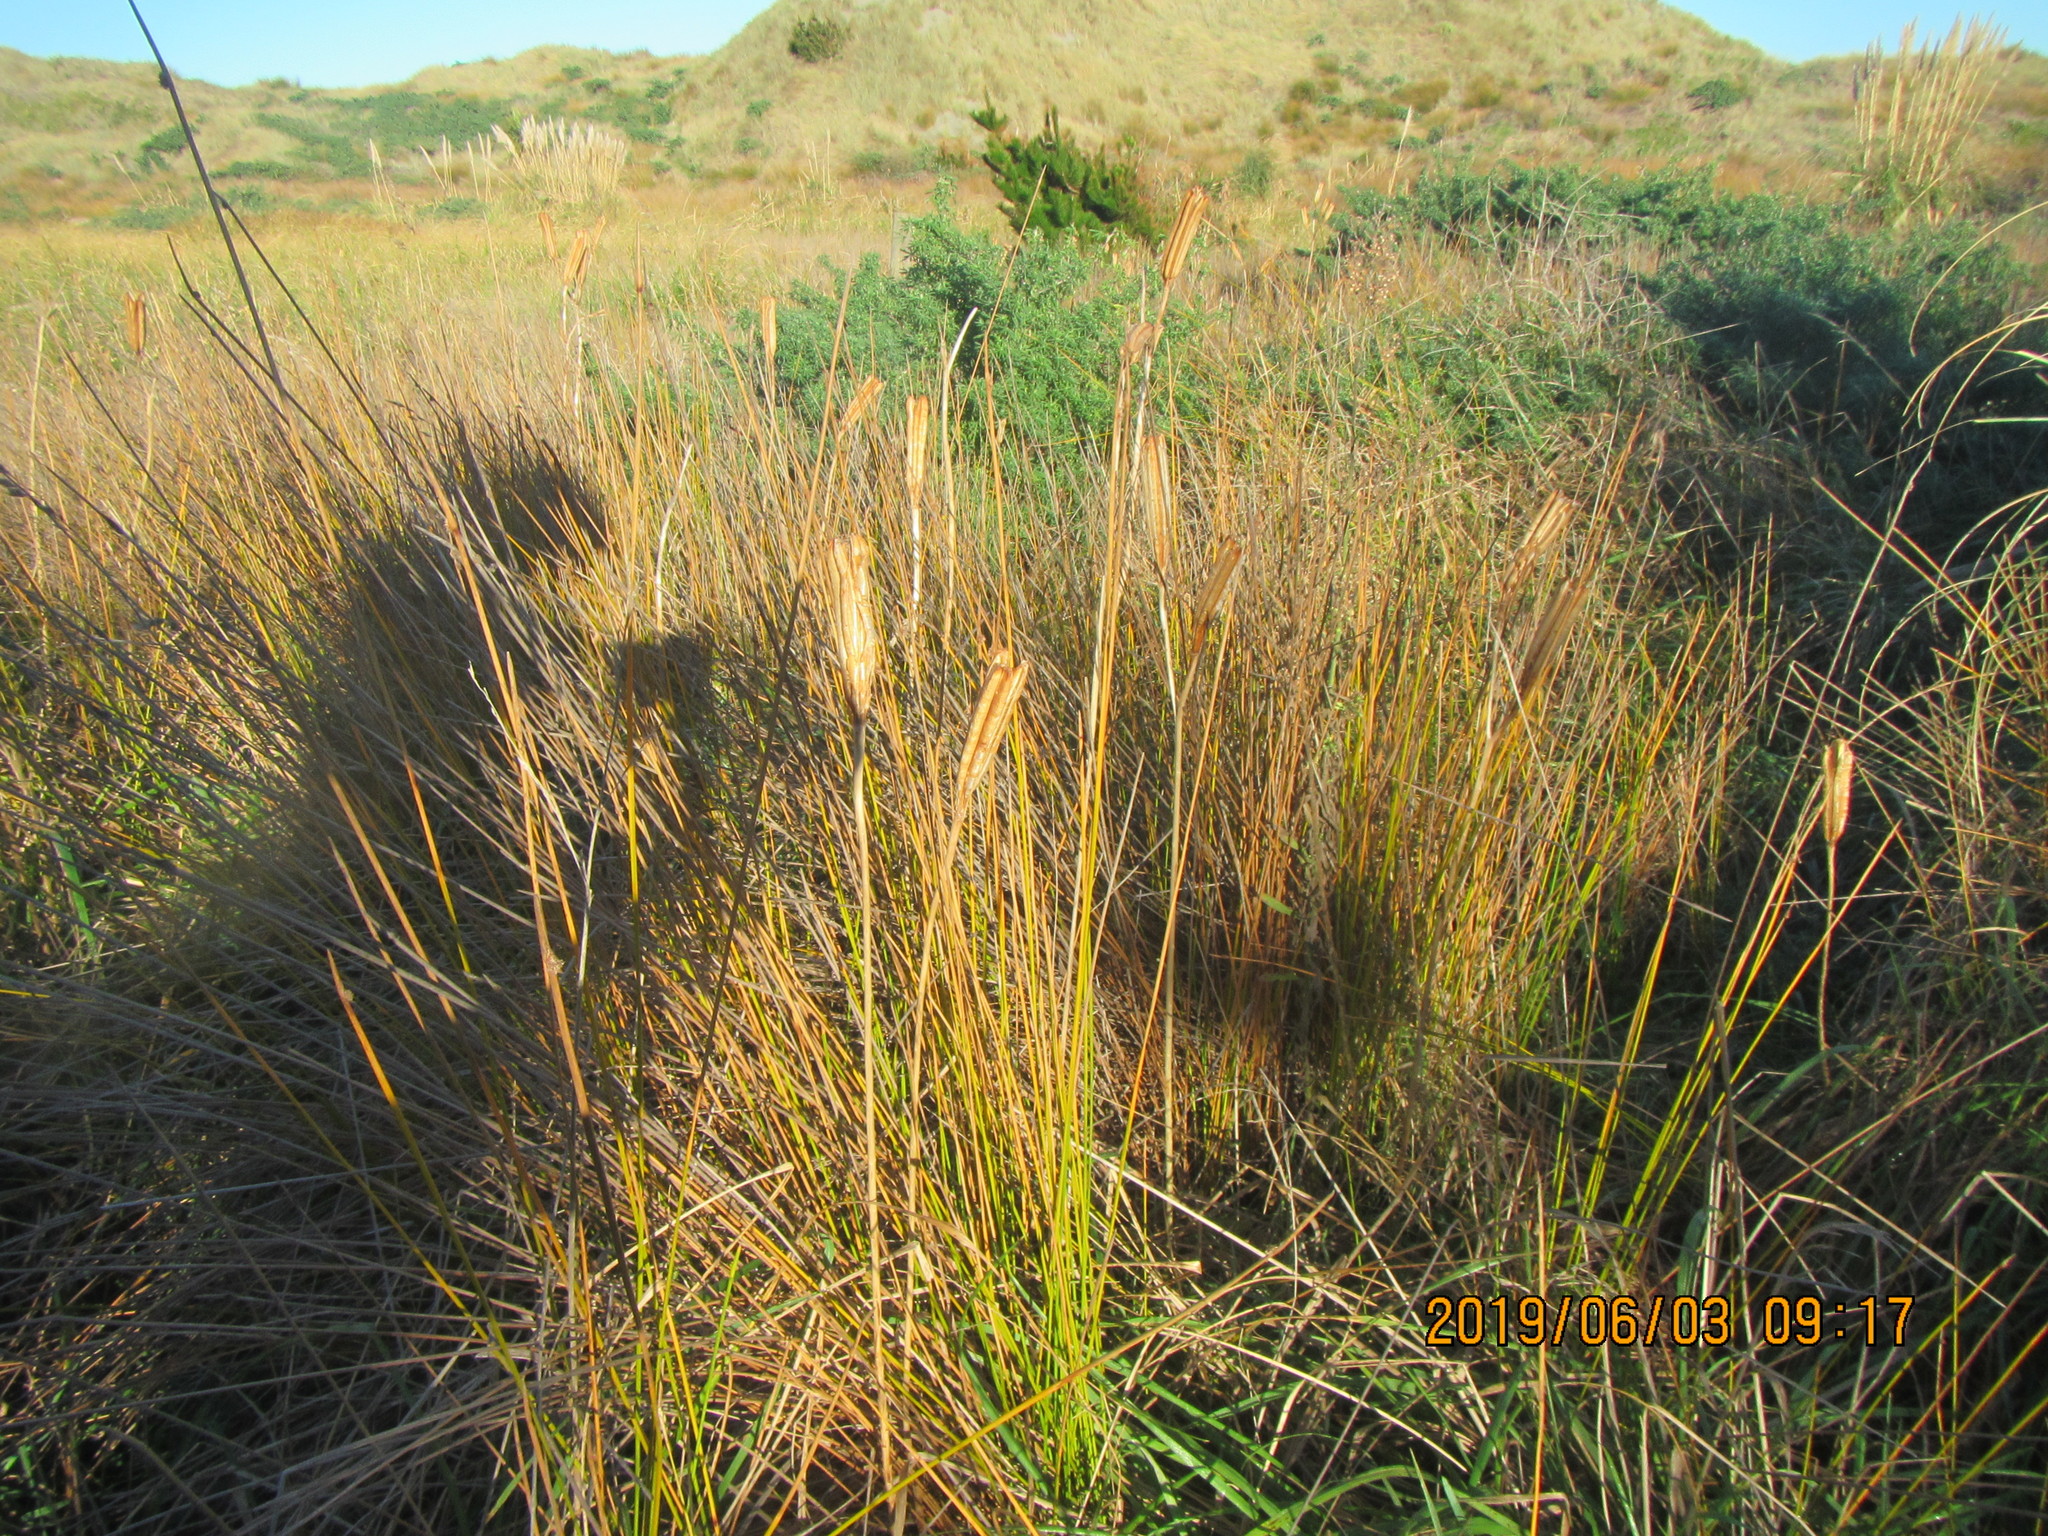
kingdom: Plantae
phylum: Tracheophyta
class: Liliopsida
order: Liliales
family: Liliaceae
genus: Lilium
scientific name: Lilium formosanum
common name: Formosa lily
